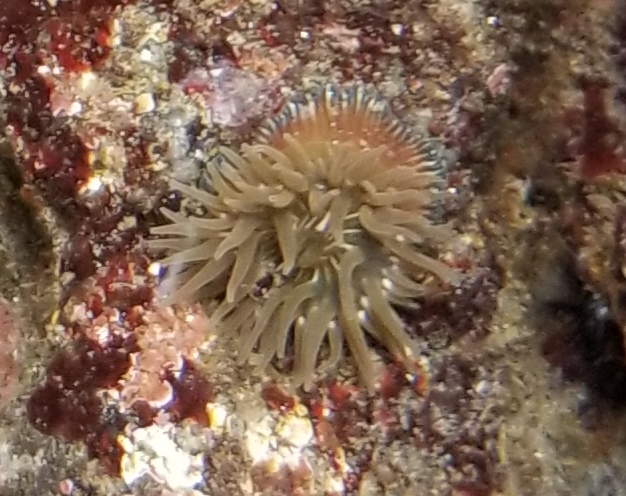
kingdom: Animalia
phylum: Cnidaria
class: Anthozoa
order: Actiniaria
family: Actiniidae
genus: Epiactis
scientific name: Epiactis prolifera
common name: Brooding anemone
